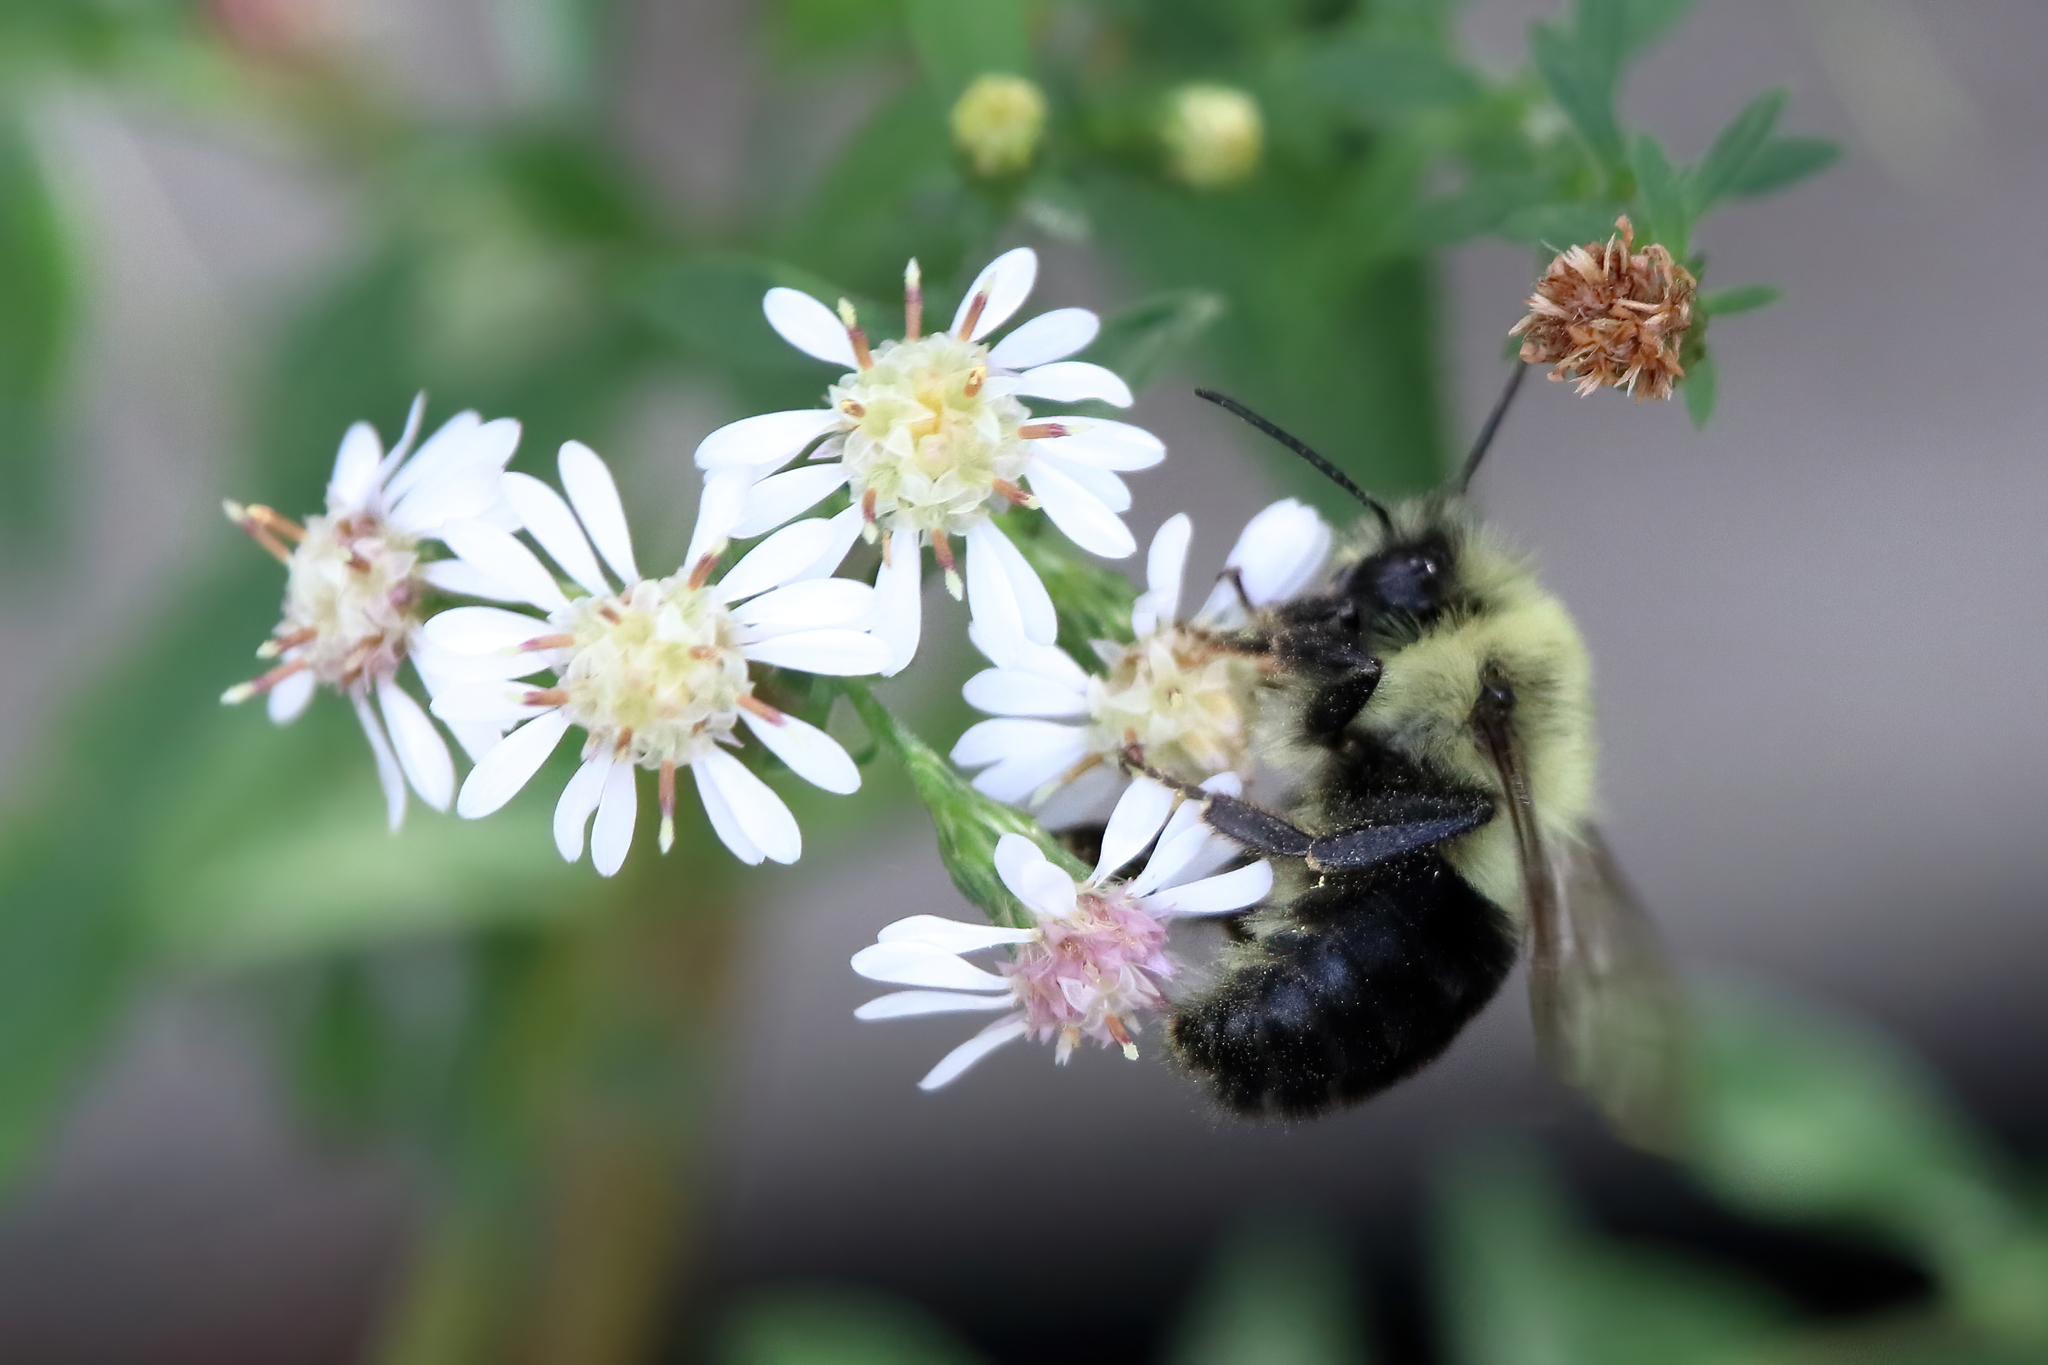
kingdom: Animalia
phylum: Arthropoda
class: Insecta
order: Hymenoptera
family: Apidae
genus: Bombus
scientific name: Bombus impatiens
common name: Common eastern bumble bee
